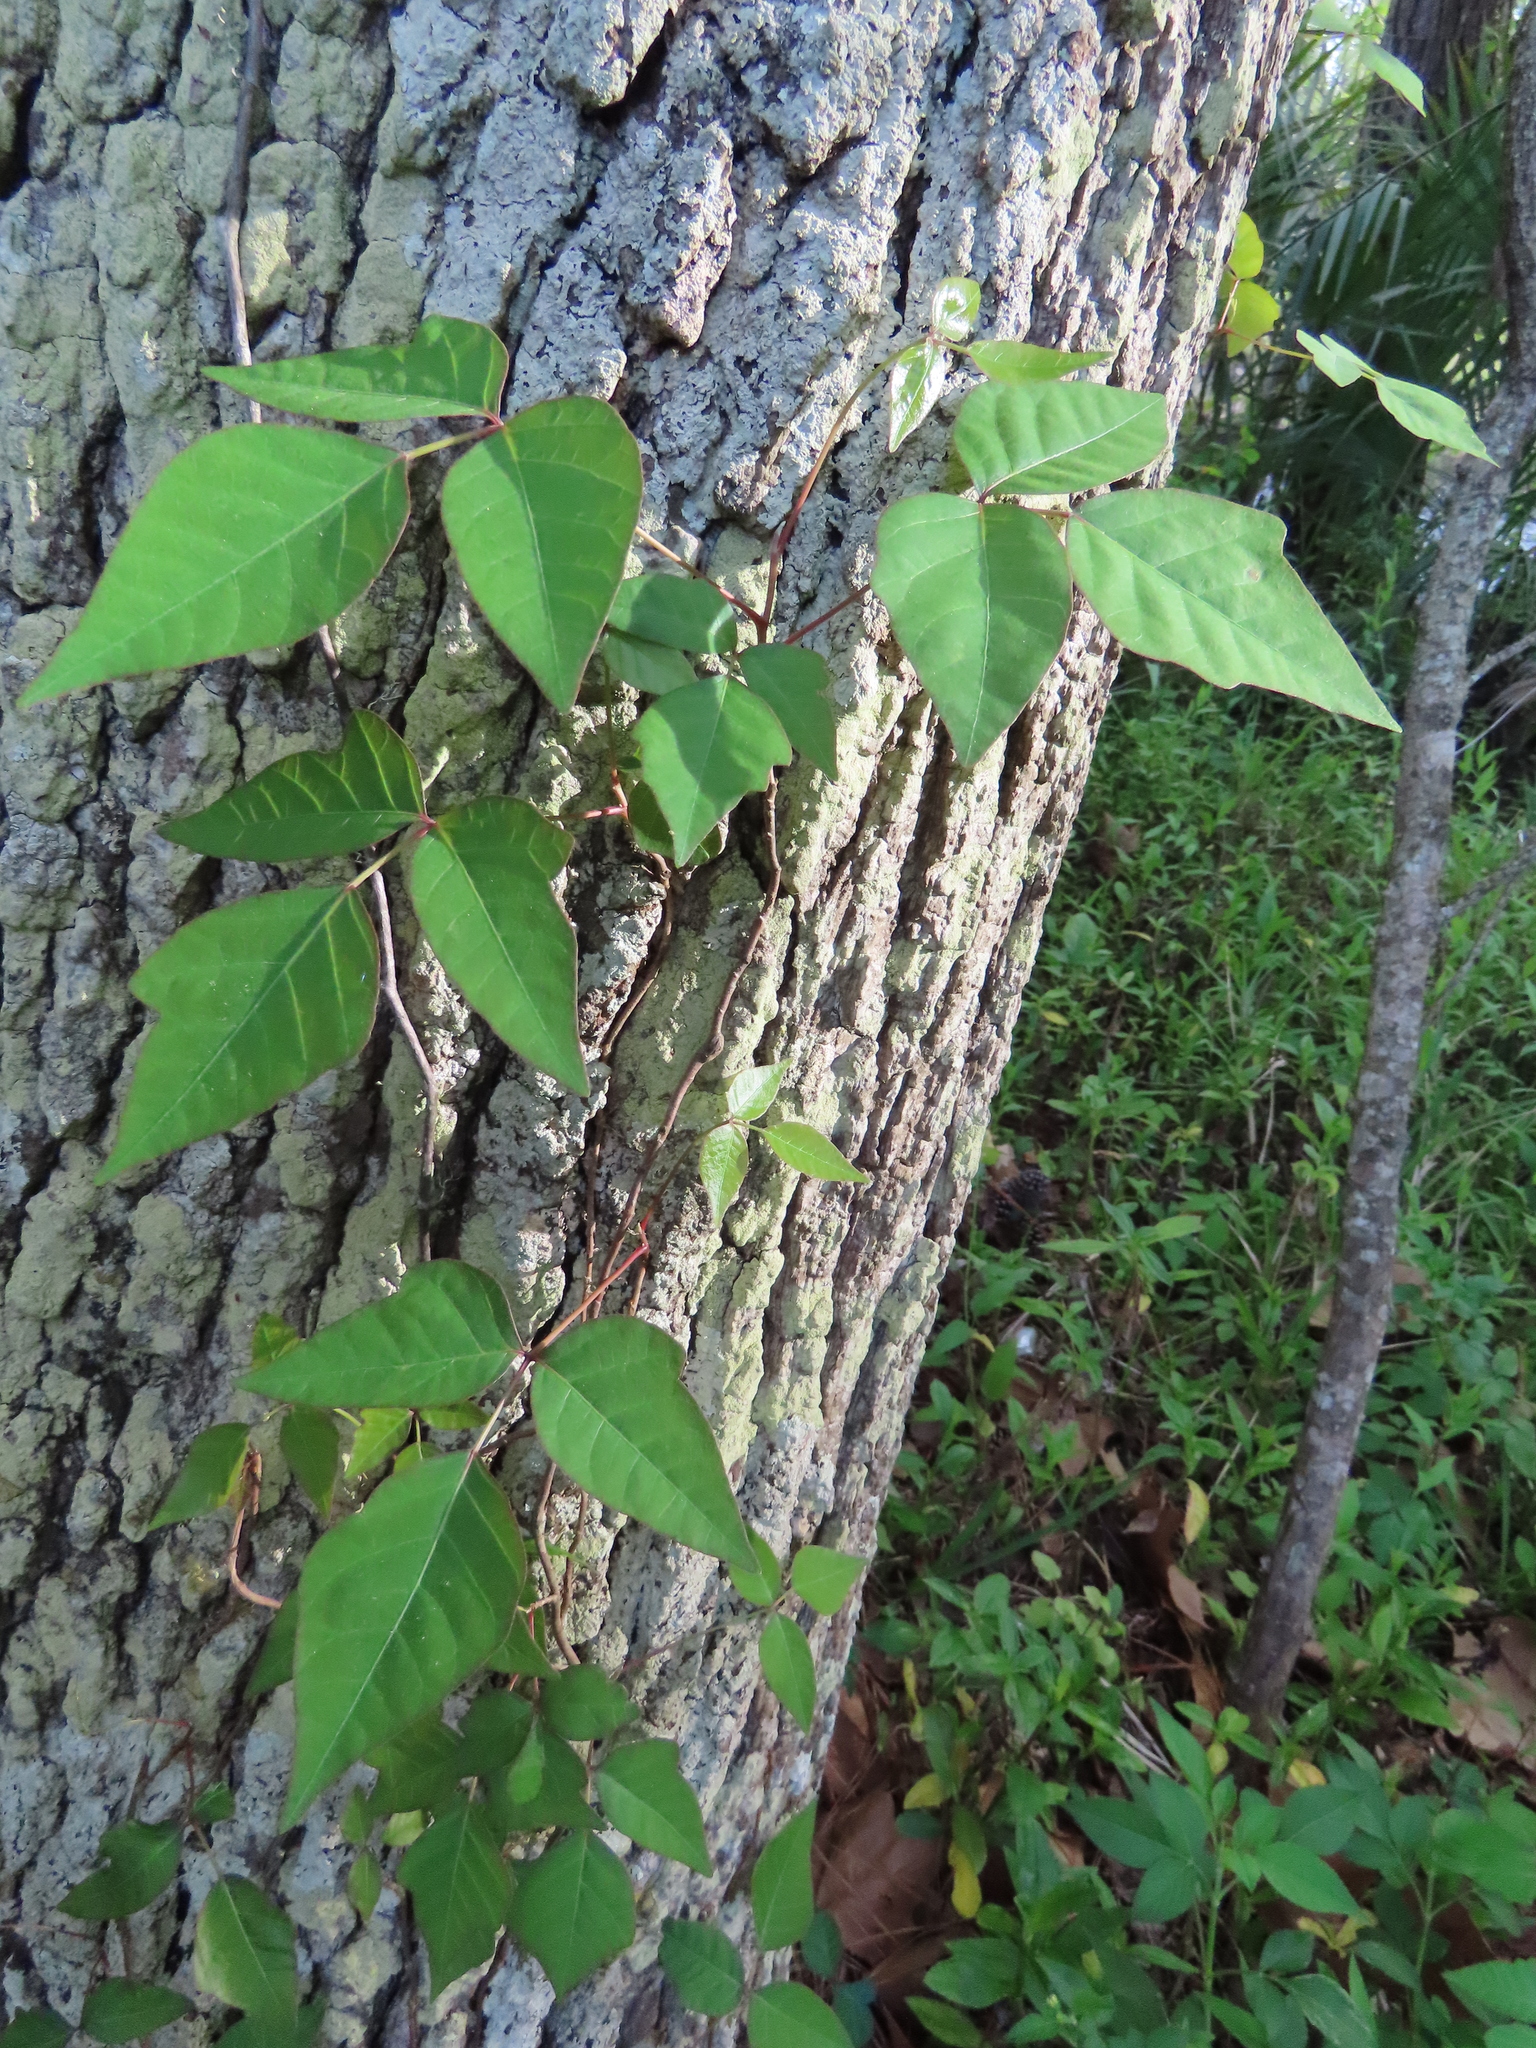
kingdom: Plantae
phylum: Tracheophyta
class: Magnoliopsida
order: Sapindales
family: Anacardiaceae
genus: Toxicodendron
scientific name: Toxicodendron radicans
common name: Poison ivy
